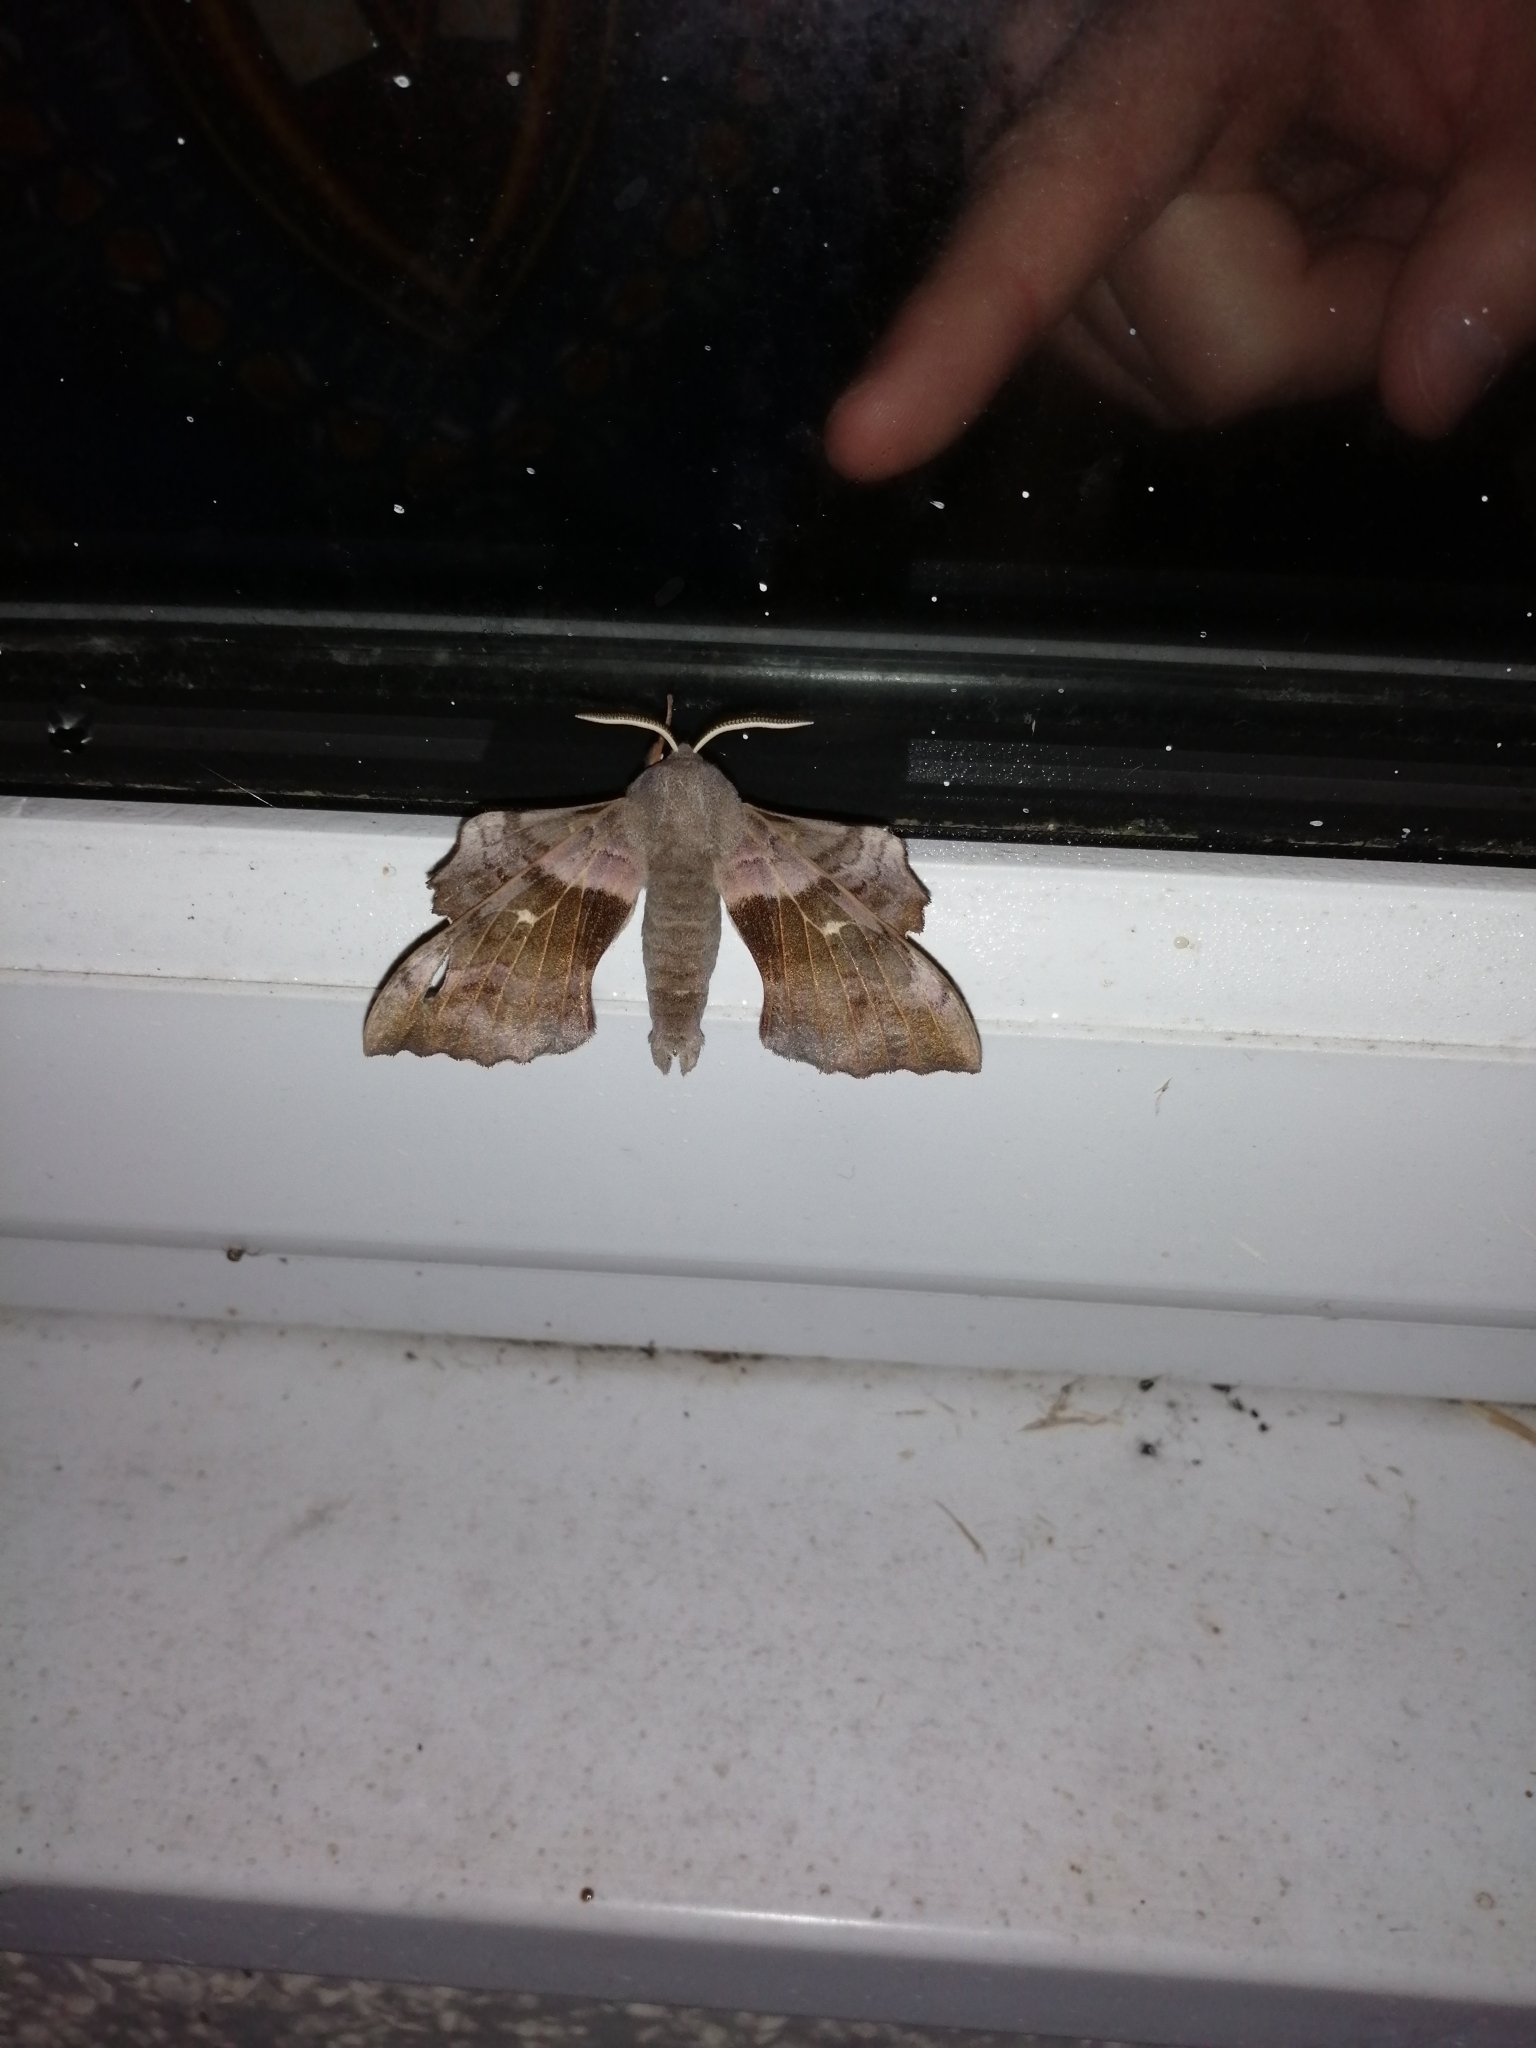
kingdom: Animalia
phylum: Arthropoda
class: Insecta
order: Lepidoptera
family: Sphingidae
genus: Laothoe
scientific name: Laothoe populi
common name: Poplar hawk-moth
